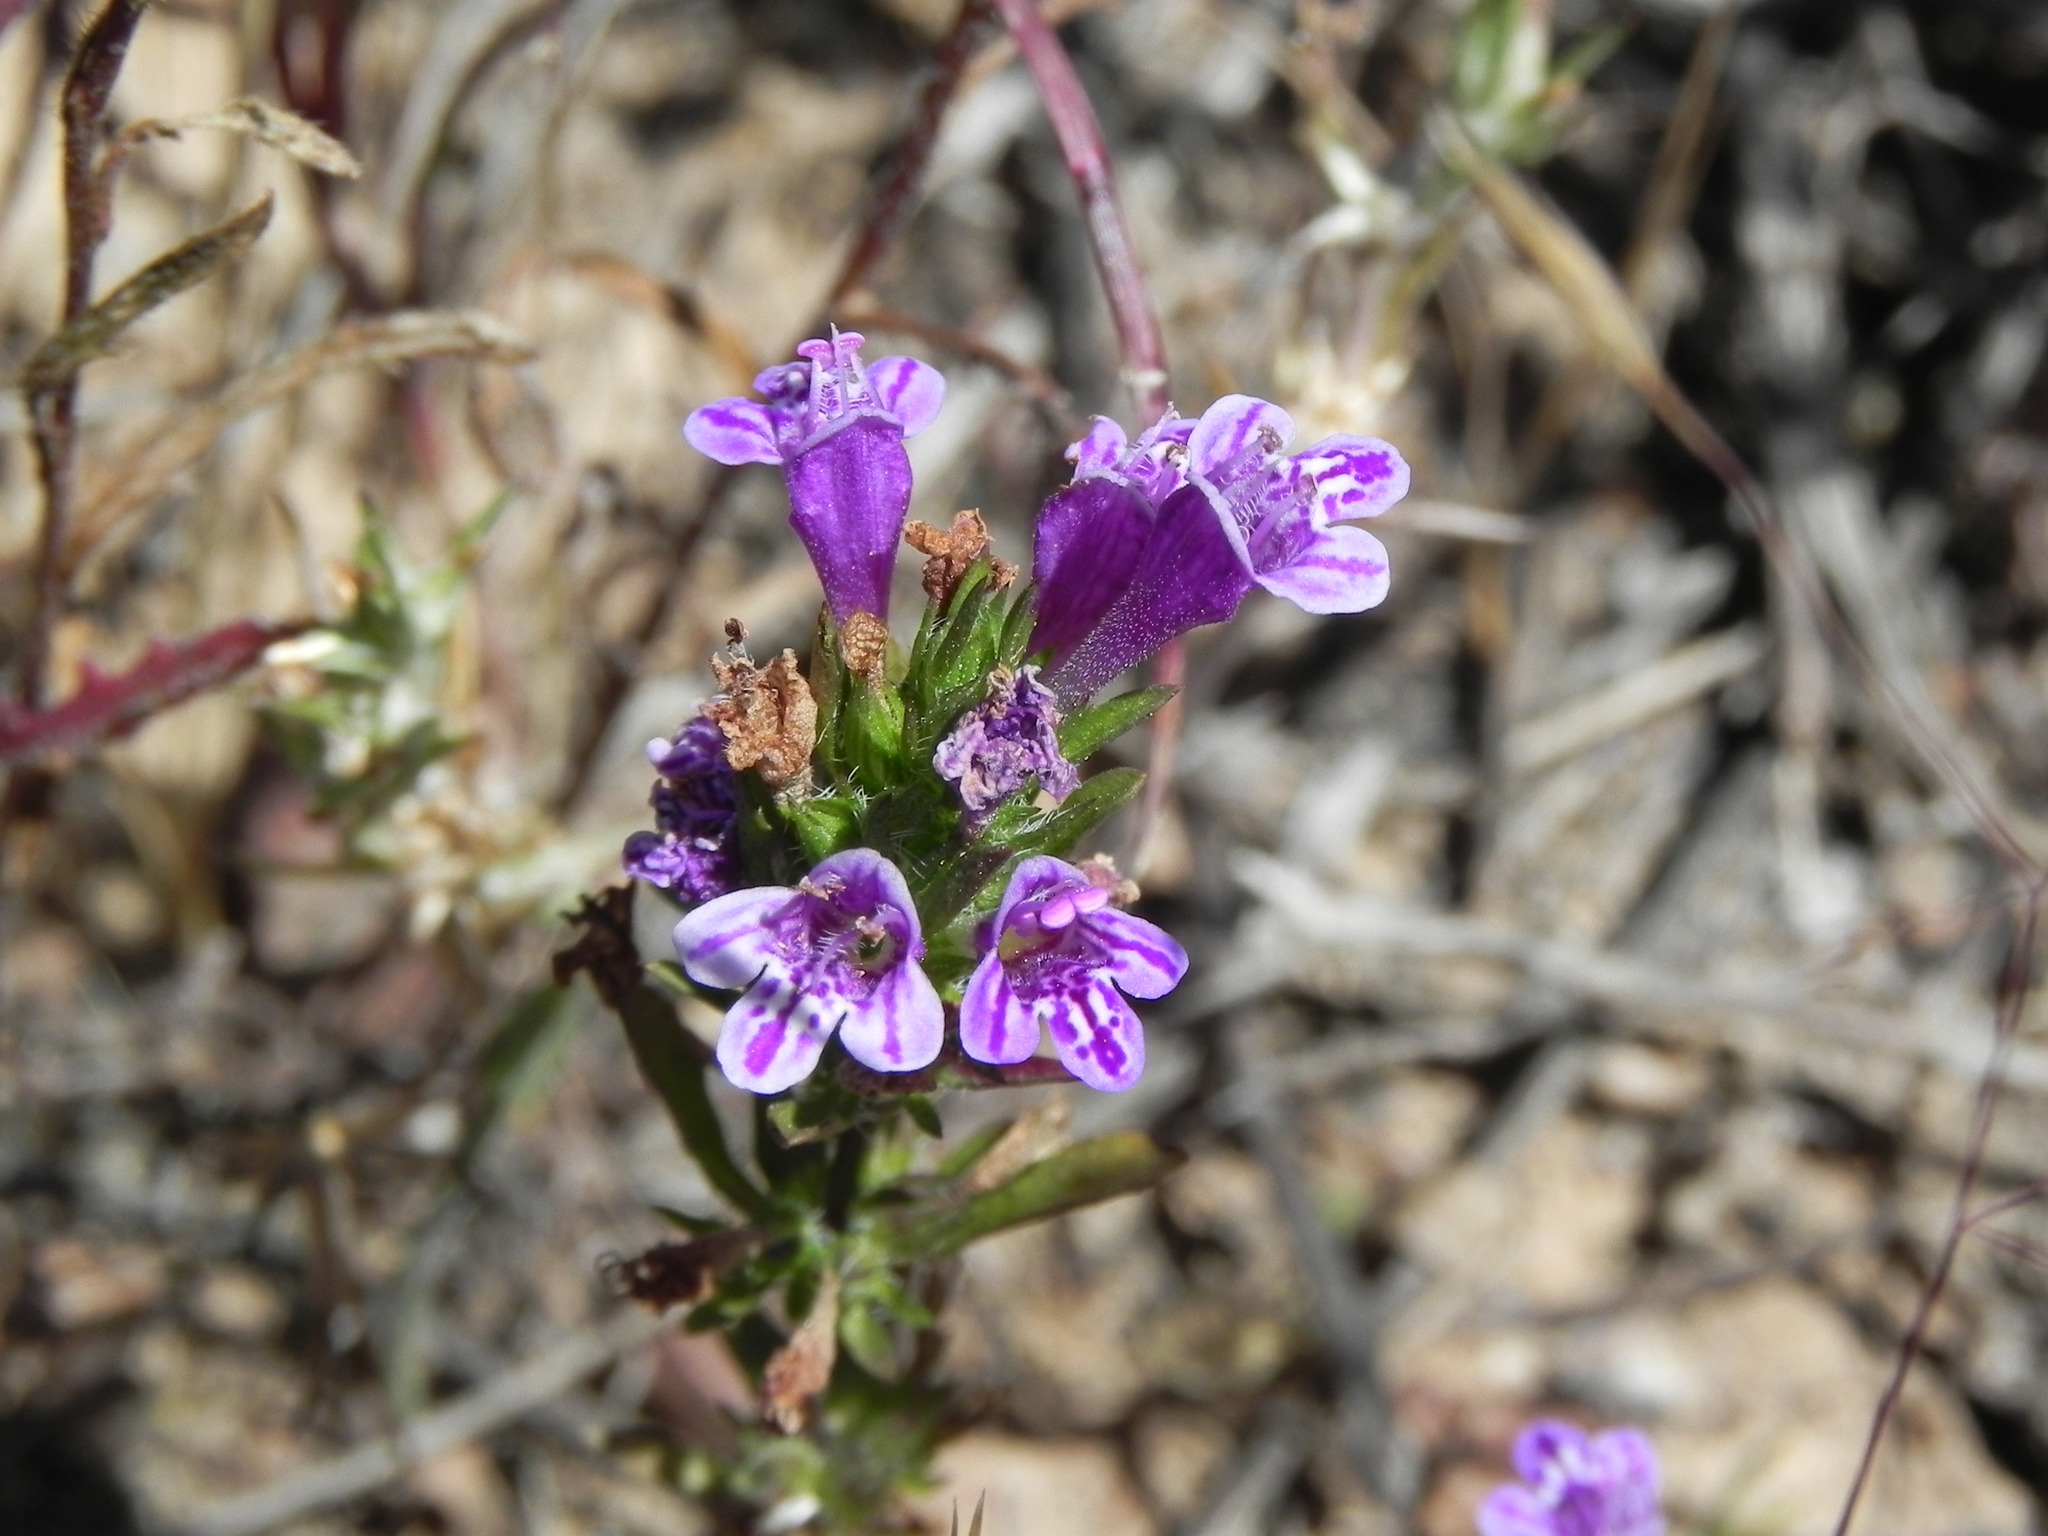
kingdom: Plantae
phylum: Tracheophyta
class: Magnoliopsida
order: Lamiales
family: Lamiaceae
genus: Pogogyne
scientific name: Pogogyne nudiuscula
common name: Otay mesa-mint
